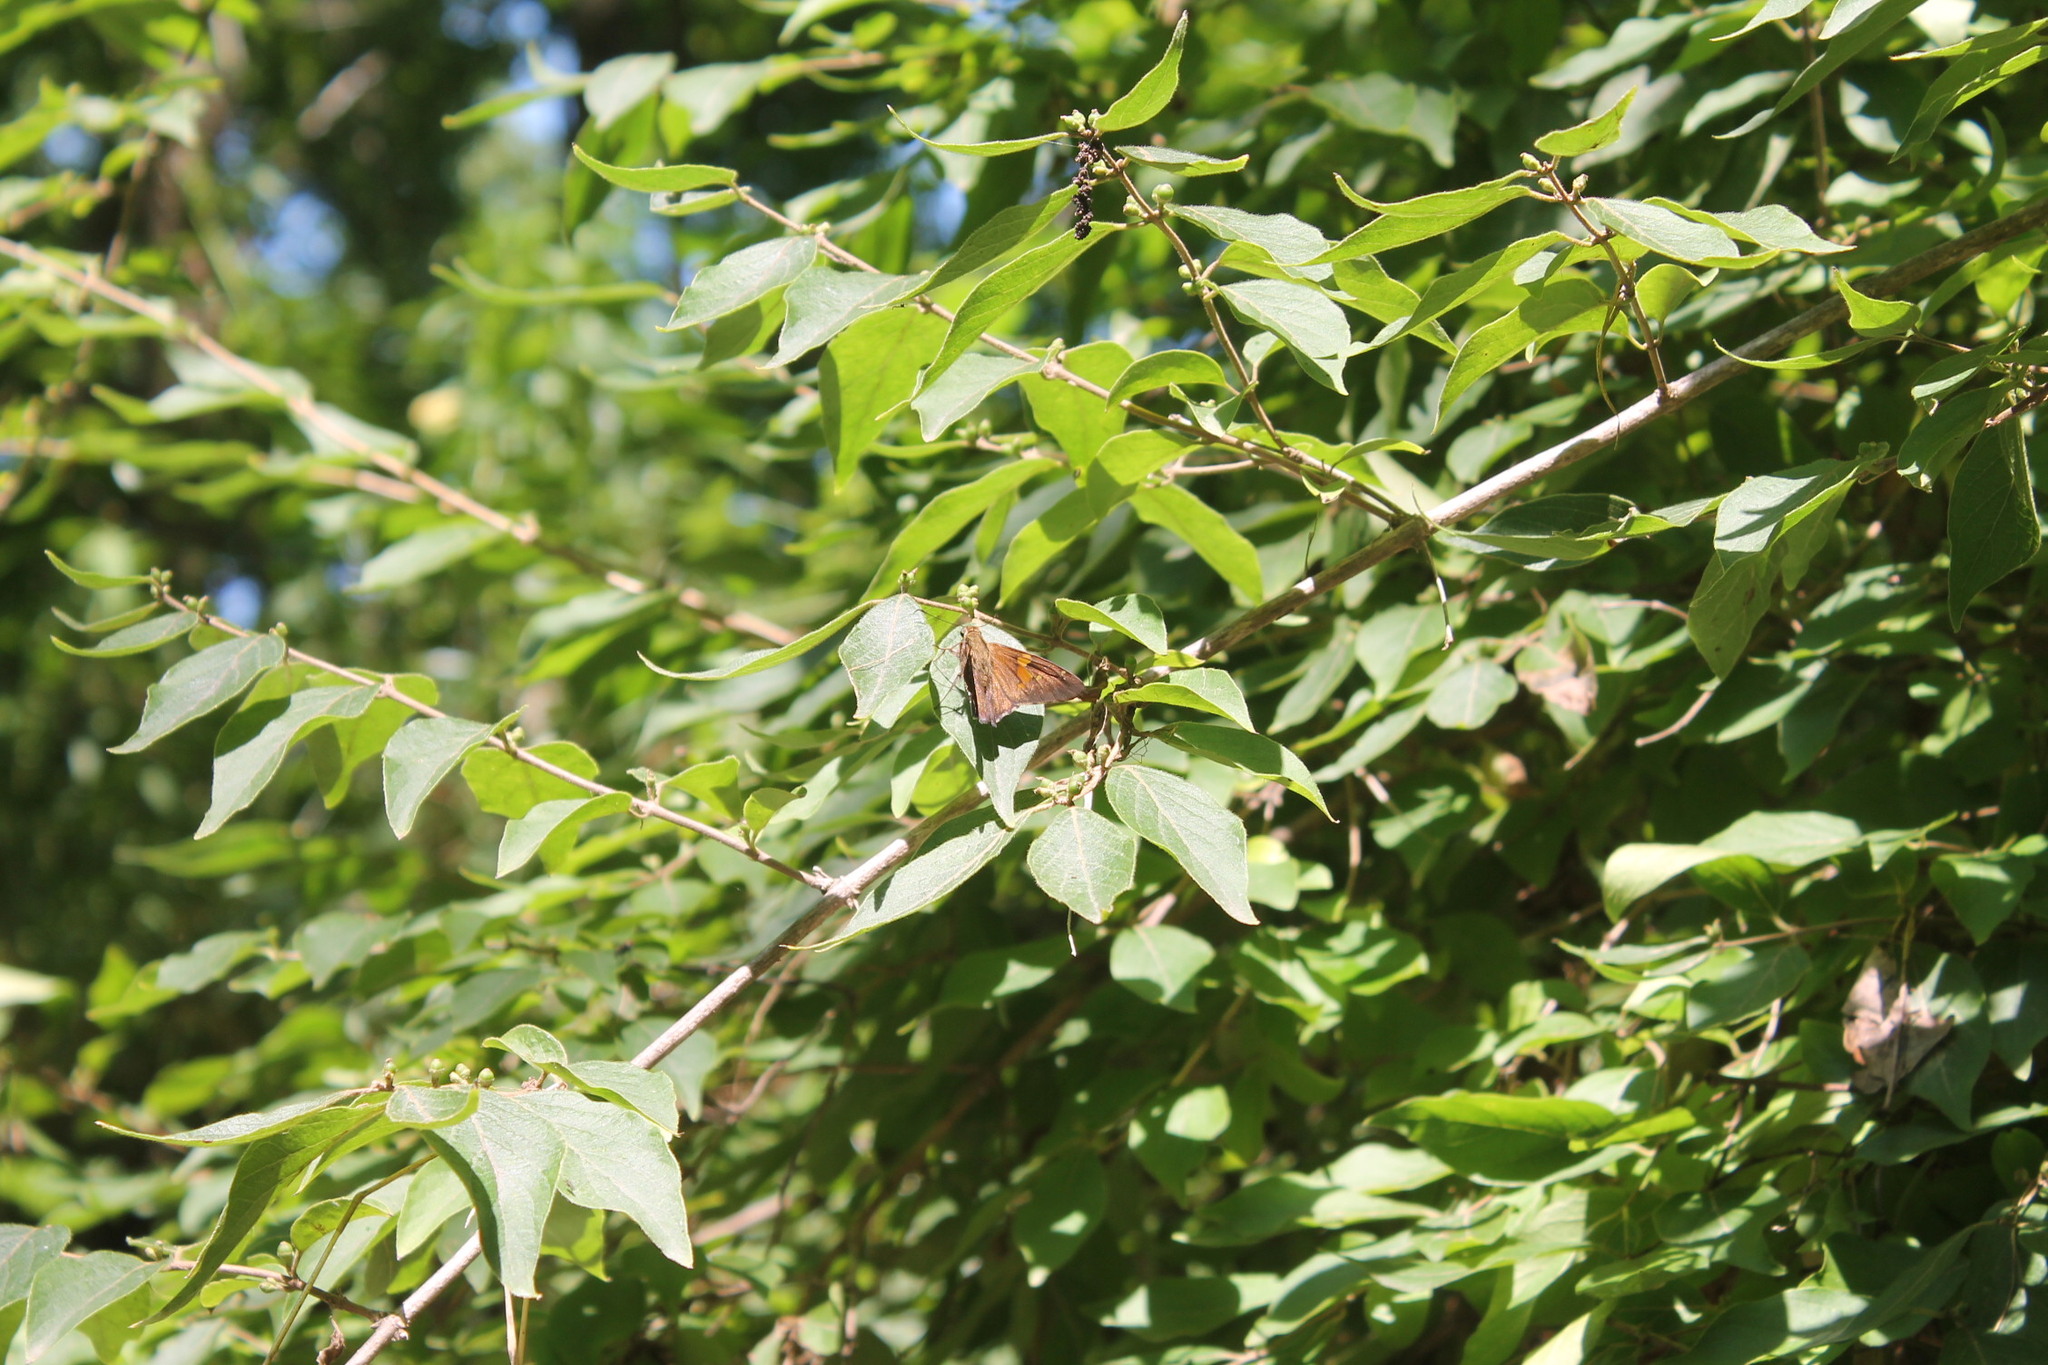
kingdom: Animalia
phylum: Arthropoda
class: Insecta
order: Lepidoptera
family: Hesperiidae
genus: Epargyreus
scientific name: Epargyreus clarus
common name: Silver-spotted skipper
